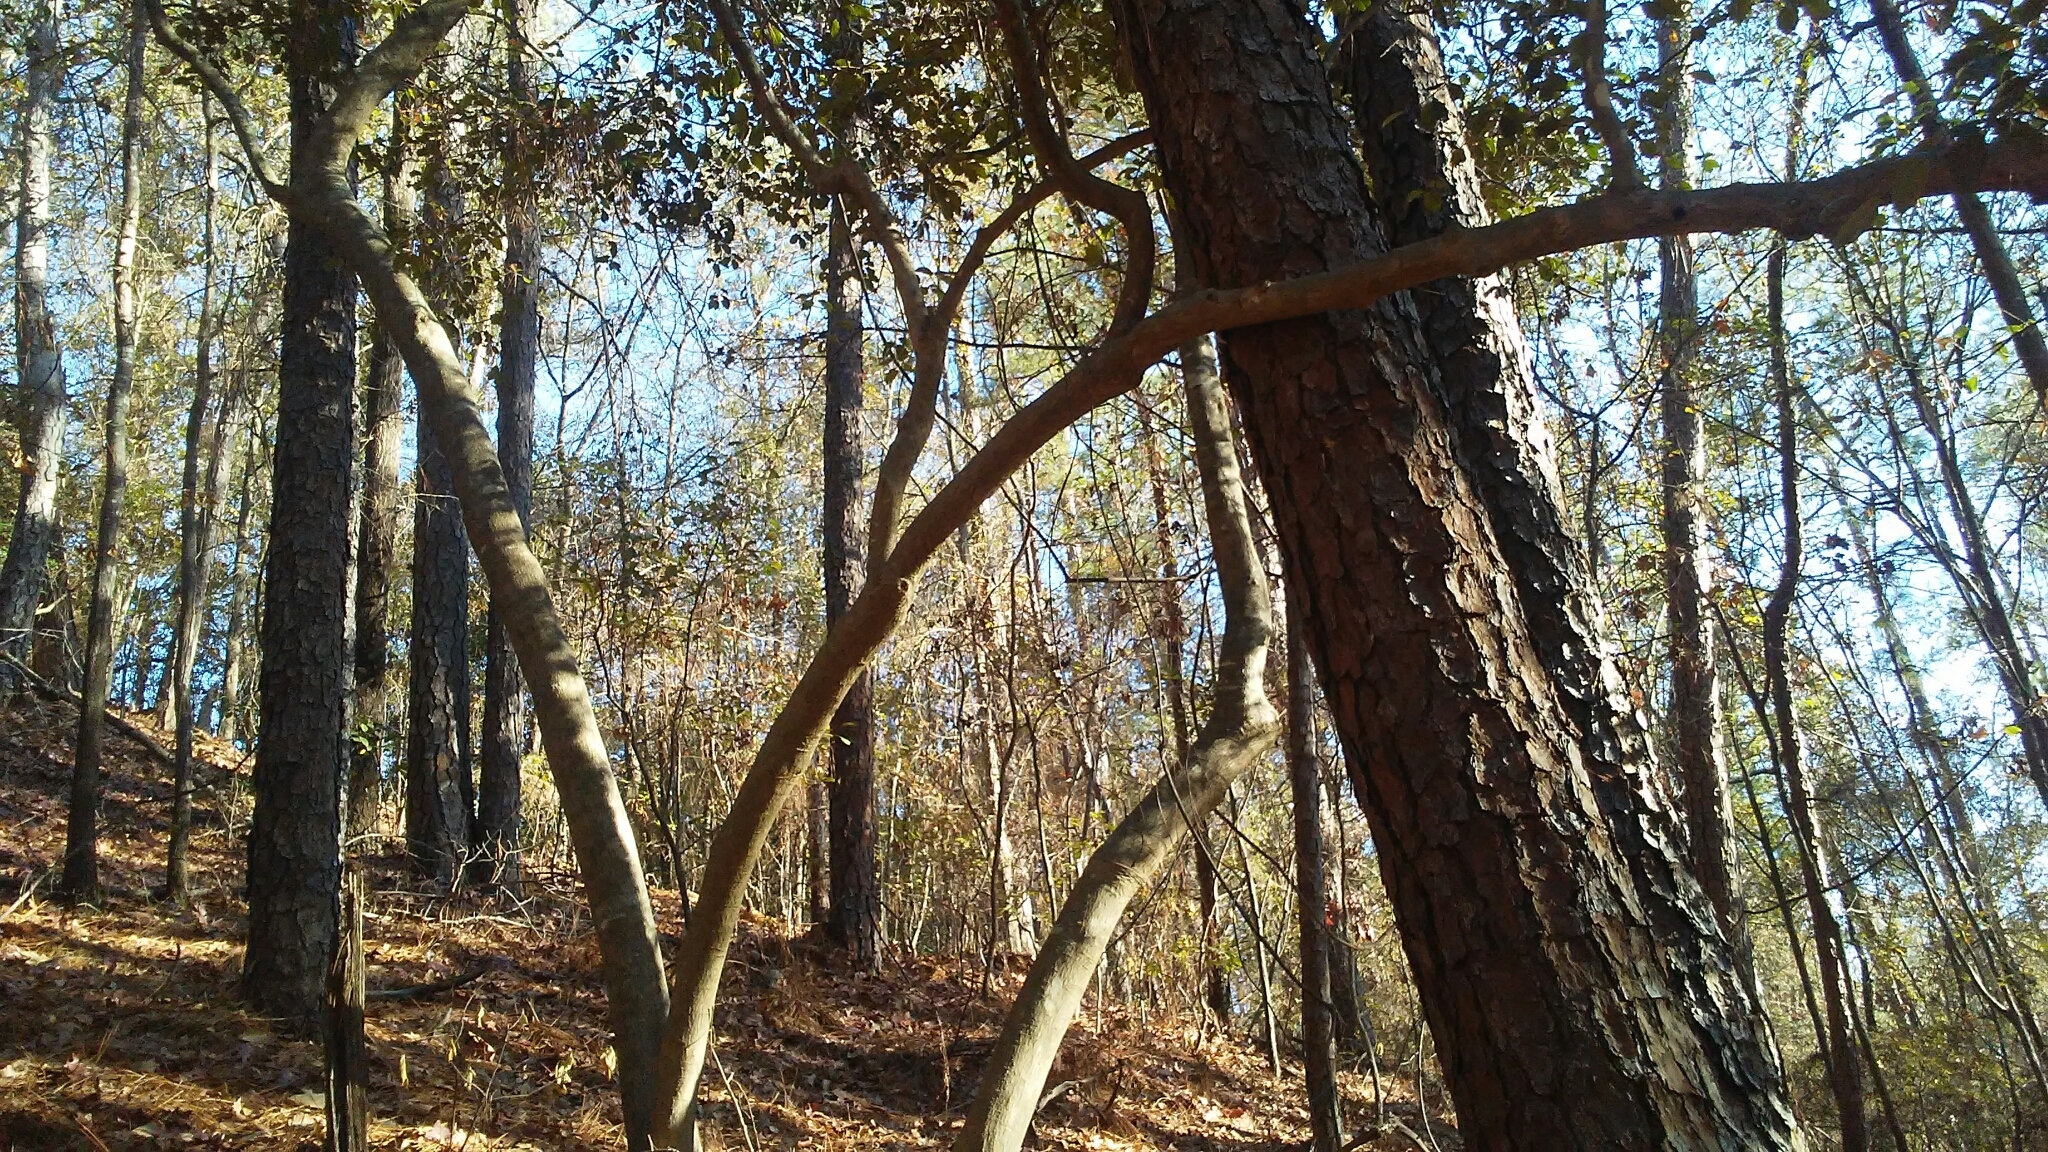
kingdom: Plantae
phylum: Tracheophyta
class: Magnoliopsida
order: Aquifoliales
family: Aquifoliaceae
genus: Ilex
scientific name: Ilex opaca
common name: American holly
